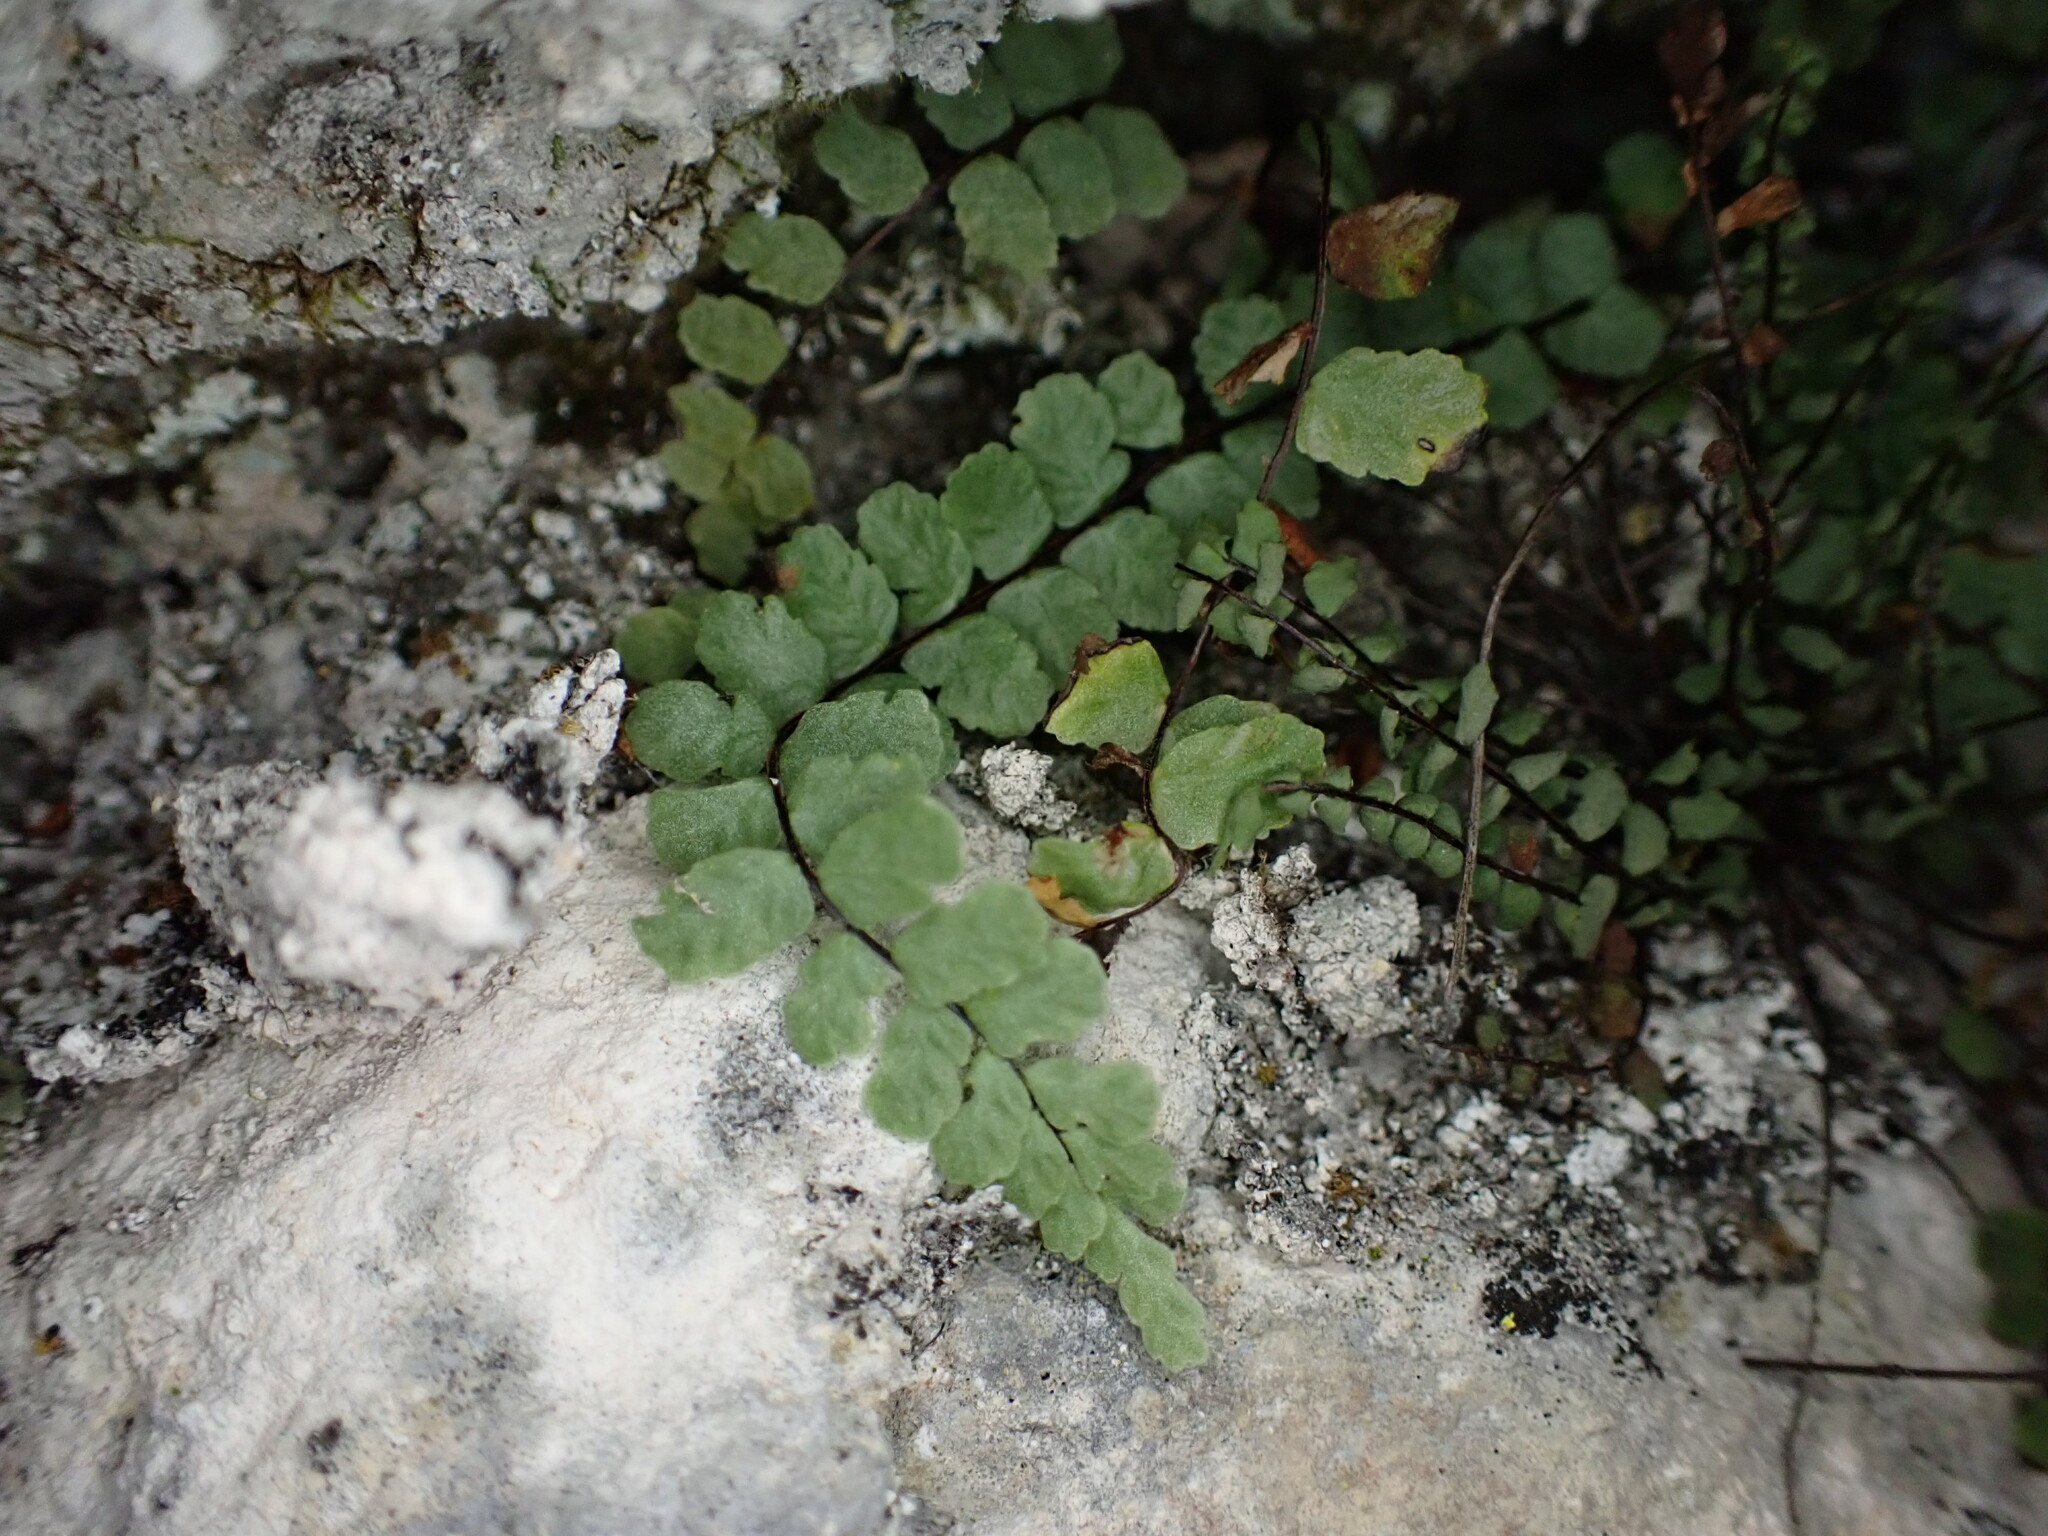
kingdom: Plantae
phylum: Tracheophyta
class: Polypodiopsida
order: Polypodiales
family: Aspleniaceae
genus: Asplenium
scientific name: Asplenium trichomanes
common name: Maidenhair spleenwort
